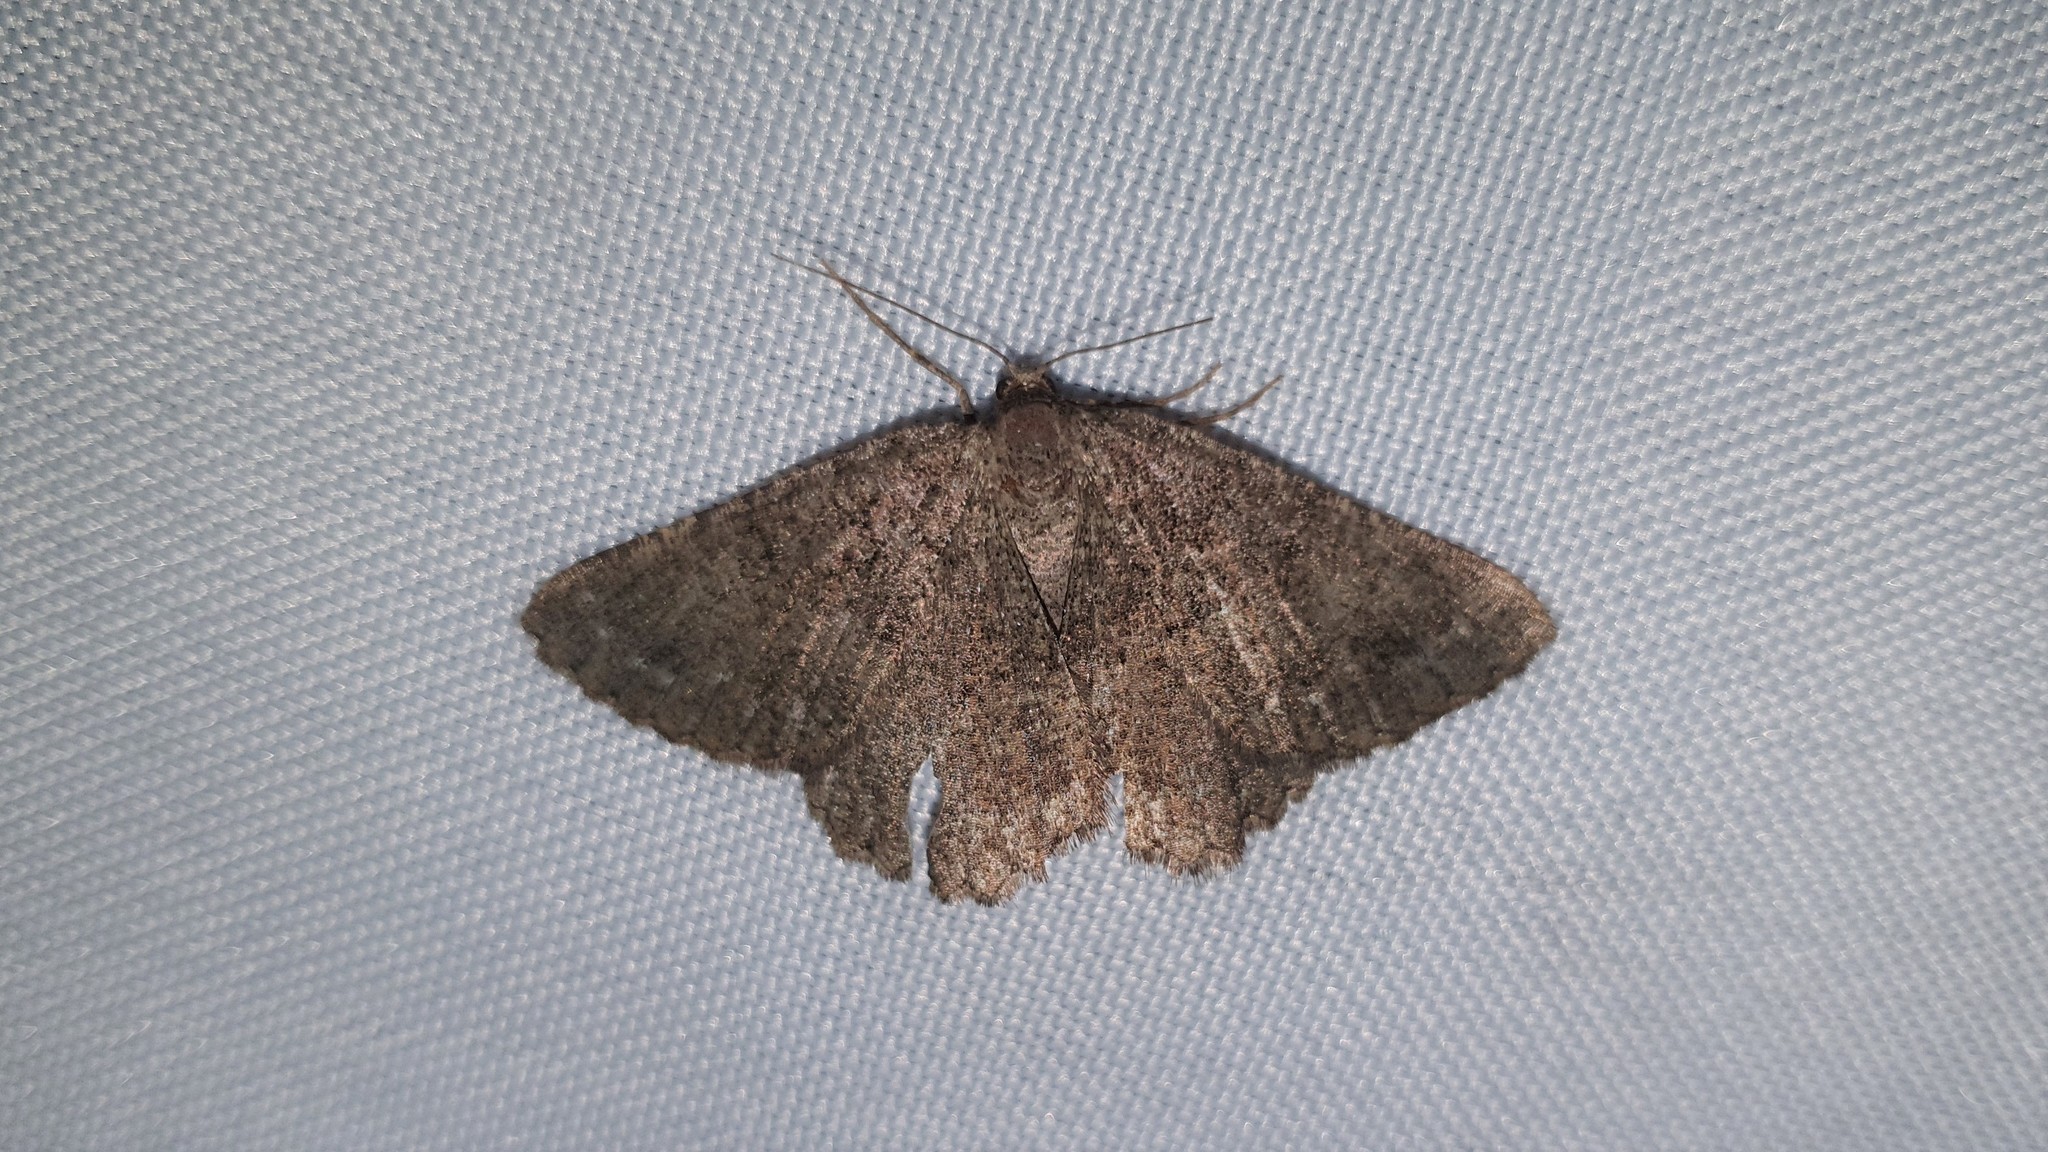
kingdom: Animalia
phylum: Arthropoda
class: Insecta
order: Lepidoptera
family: Geometridae
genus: Selidosema
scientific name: Selidosema taeniolaria
